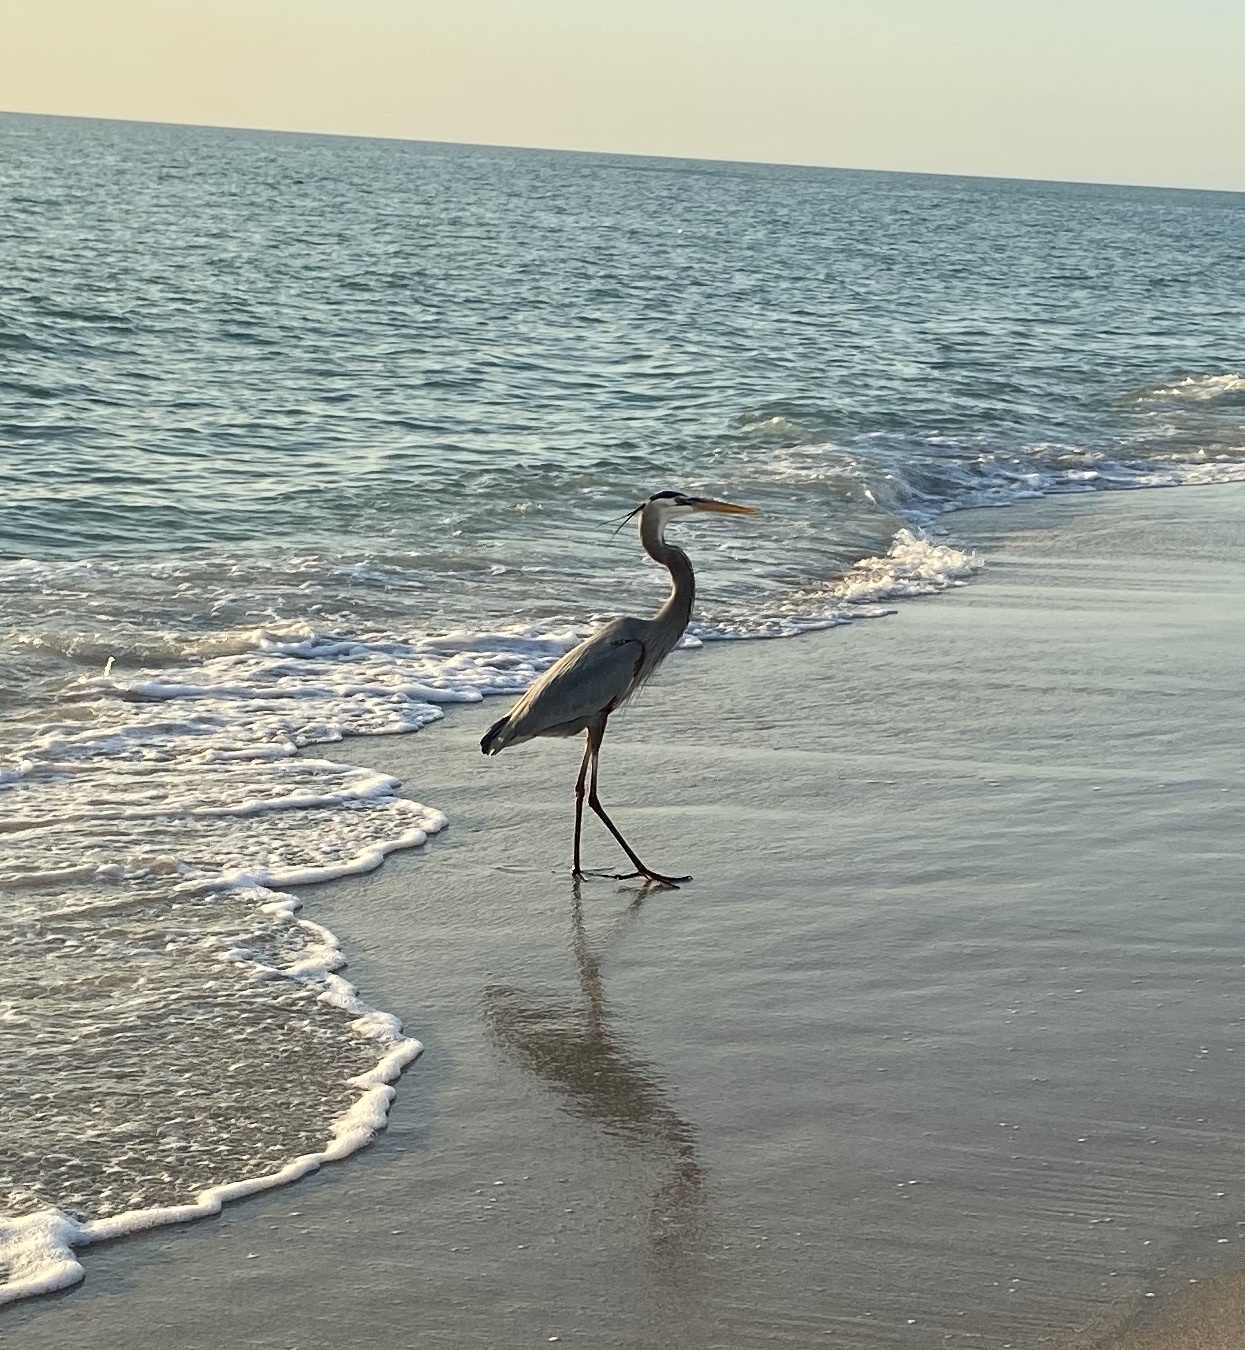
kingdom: Animalia
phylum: Chordata
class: Aves
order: Pelecaniformes
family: Ardeidae
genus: Ardea
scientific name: Ardea herodias
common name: Great blue heron
